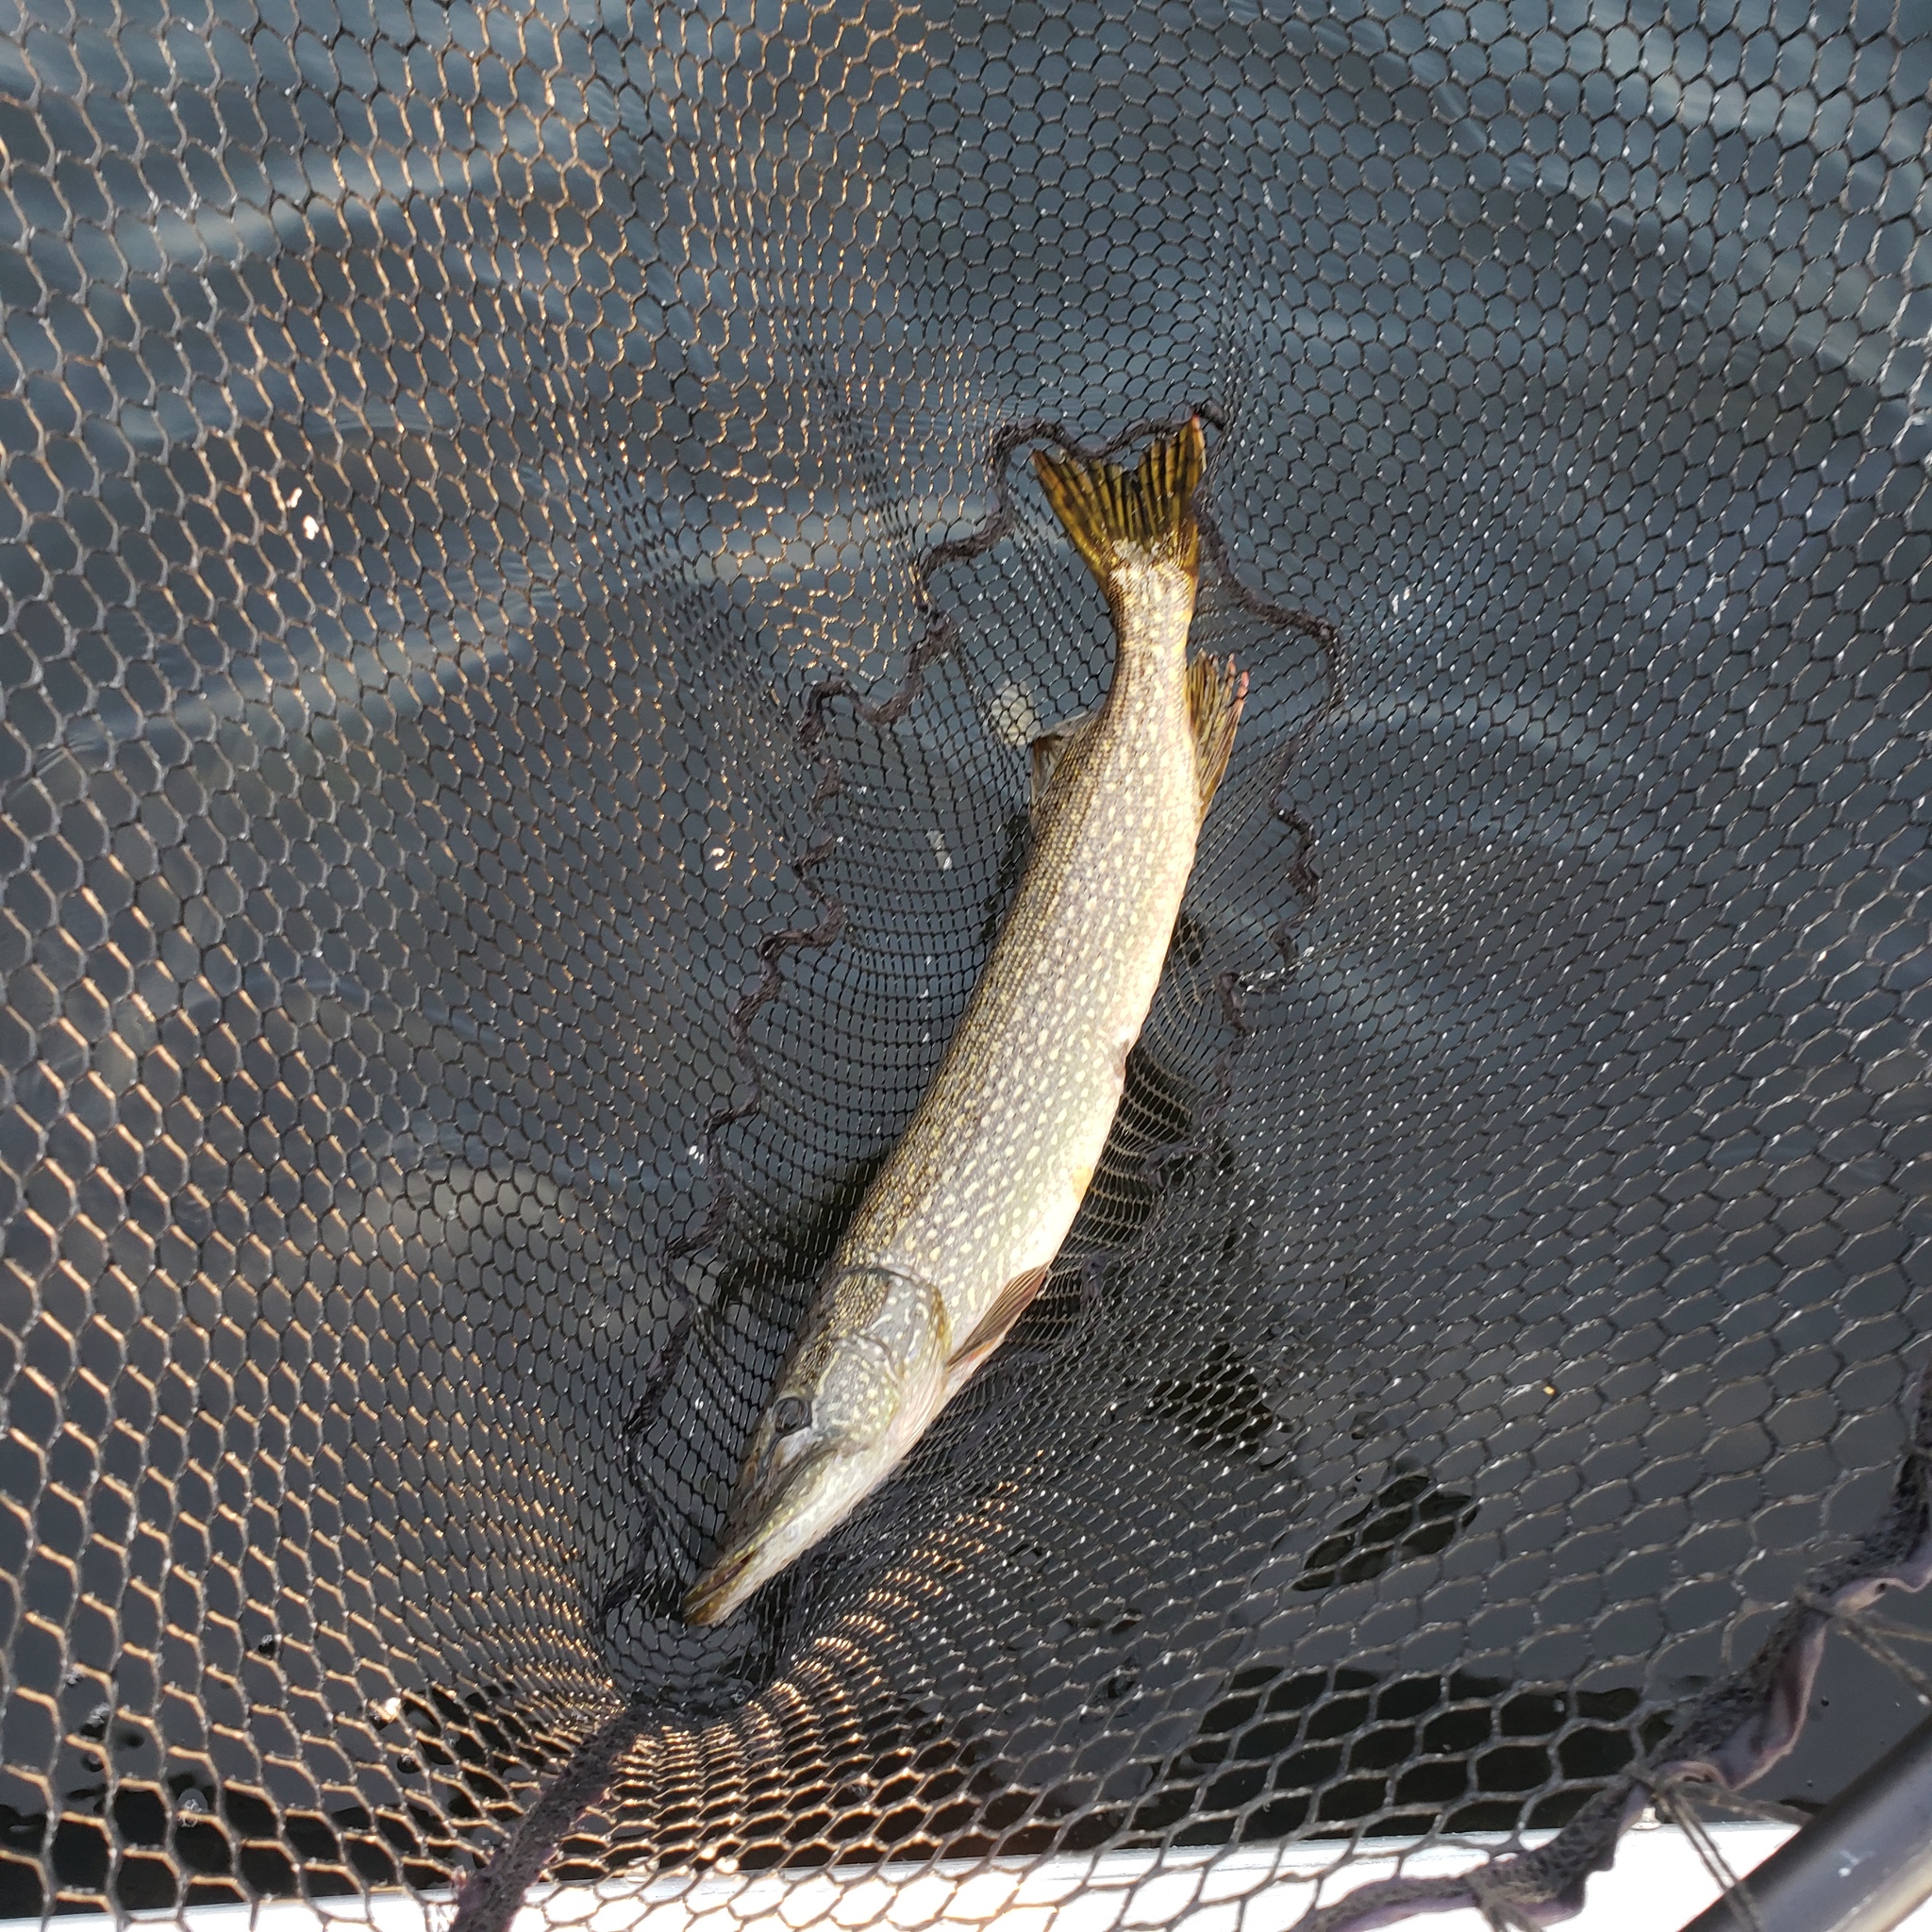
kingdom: Animalia
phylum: Chordata
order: Esociformes
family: Esocidae
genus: Esox
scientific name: Esox lucius
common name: Northern pike
